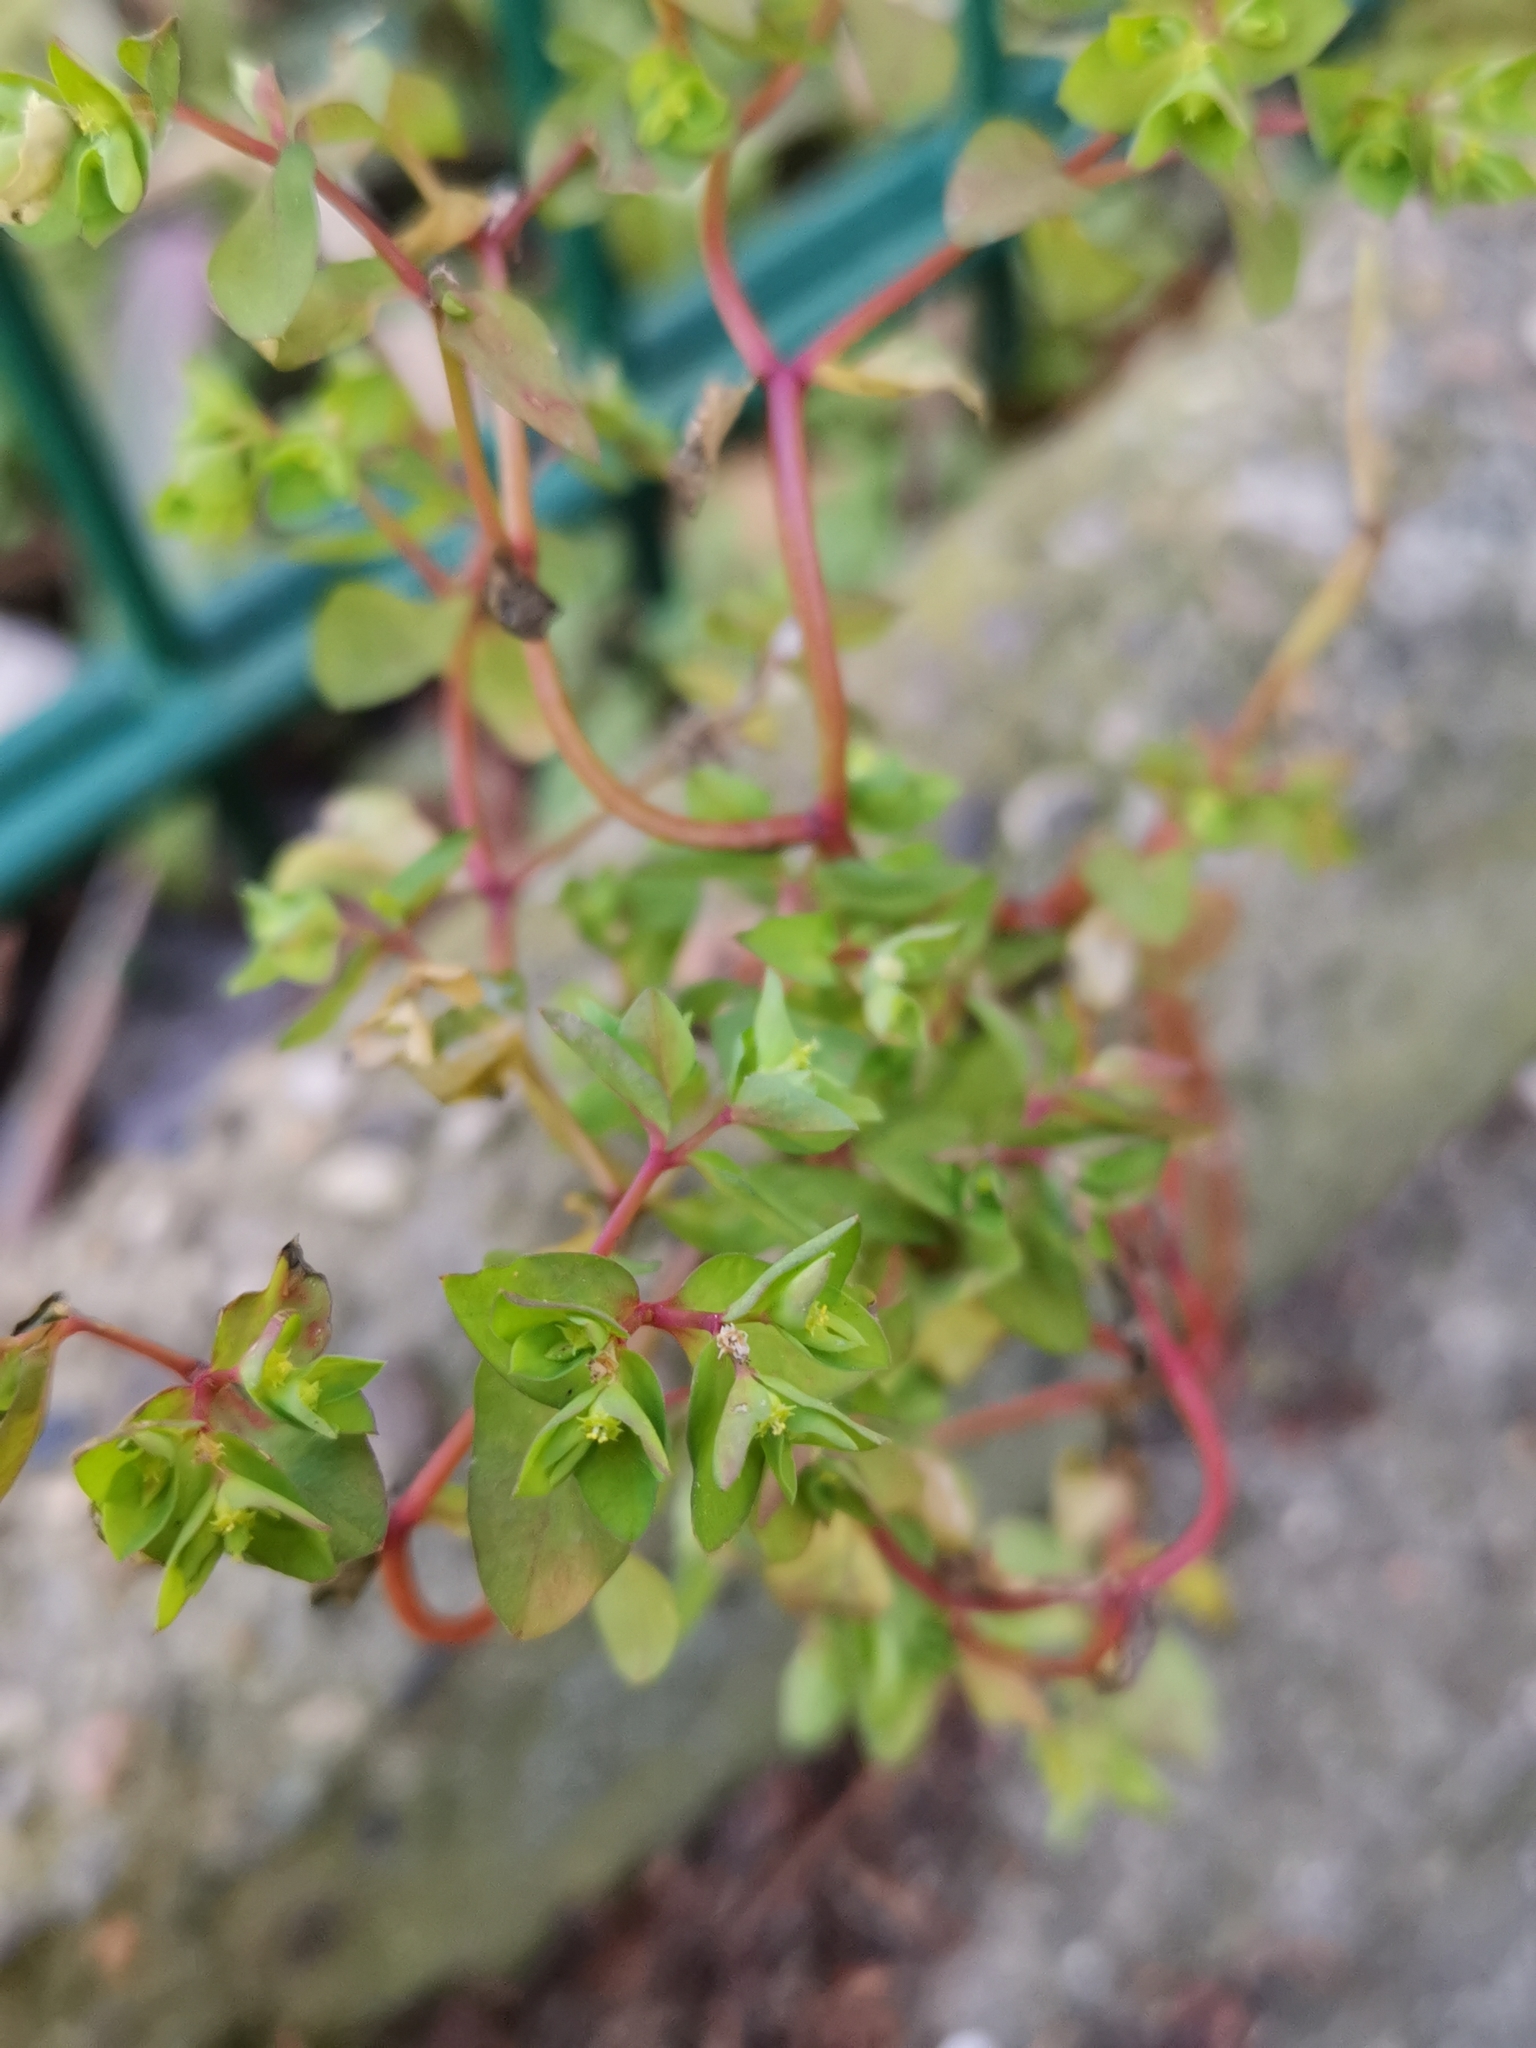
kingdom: Plantae
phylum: Tracheophyta
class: Magnoliopsida
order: Malpighiales
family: Euphorbiaceae
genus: Euphorbia
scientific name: Euphorbia peplus
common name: Petty spurge
